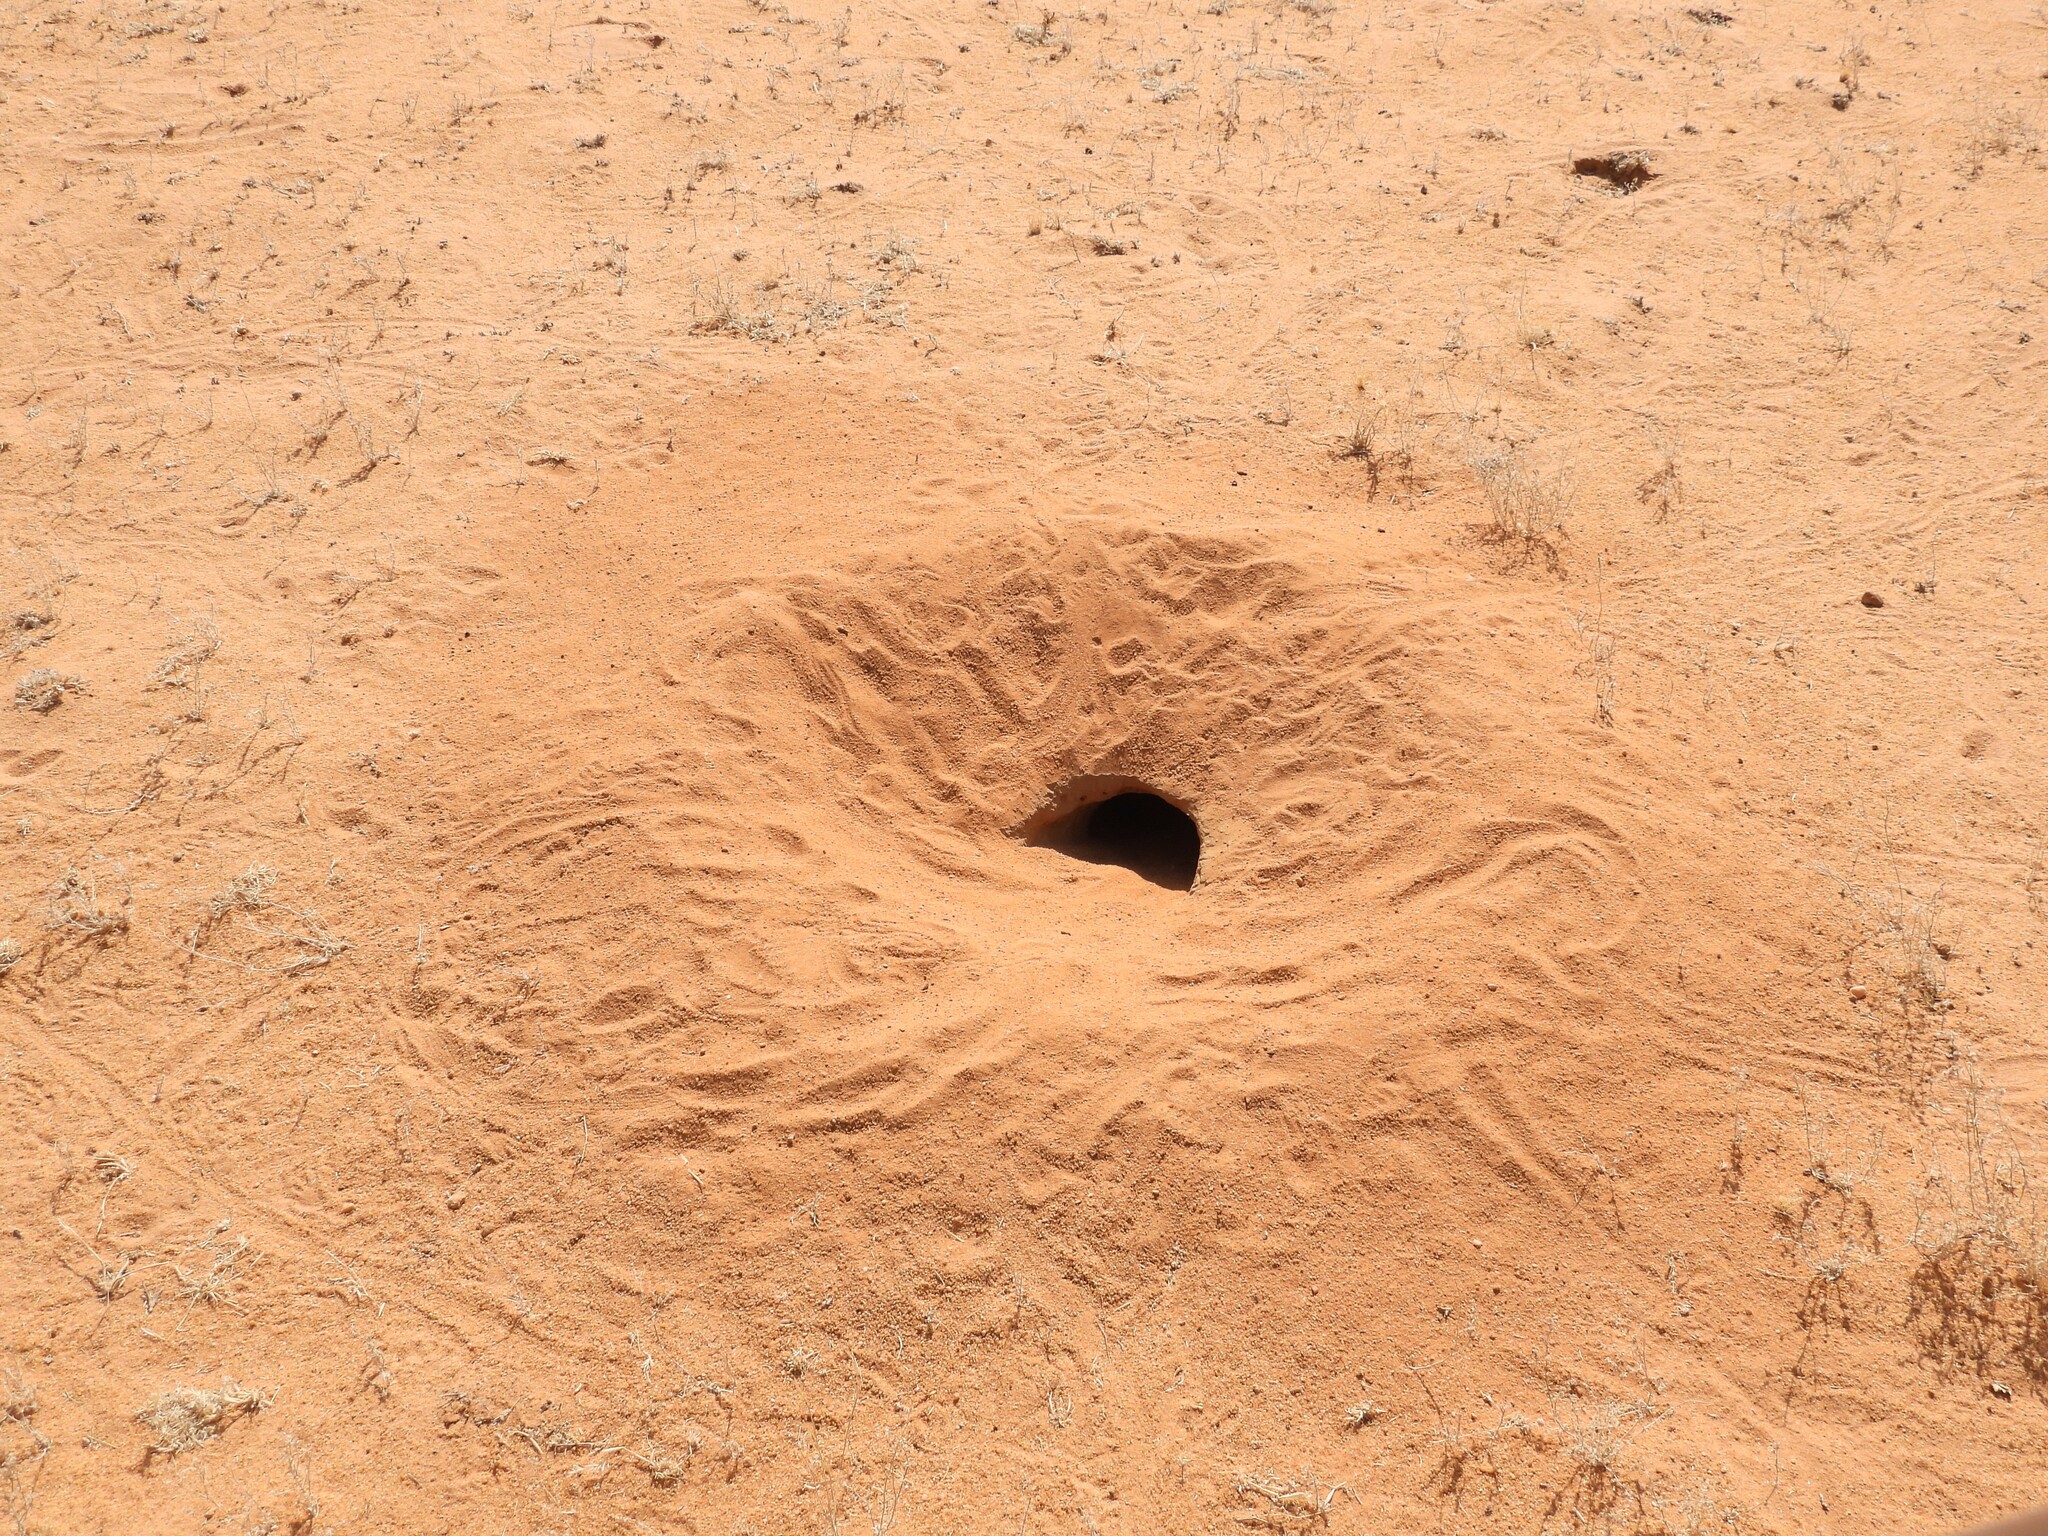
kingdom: Animalia
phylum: Chordata
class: Squamata
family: Agamidae
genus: Uromastyx
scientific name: Uromastyx aegyptia
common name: Egyptian mastigure
